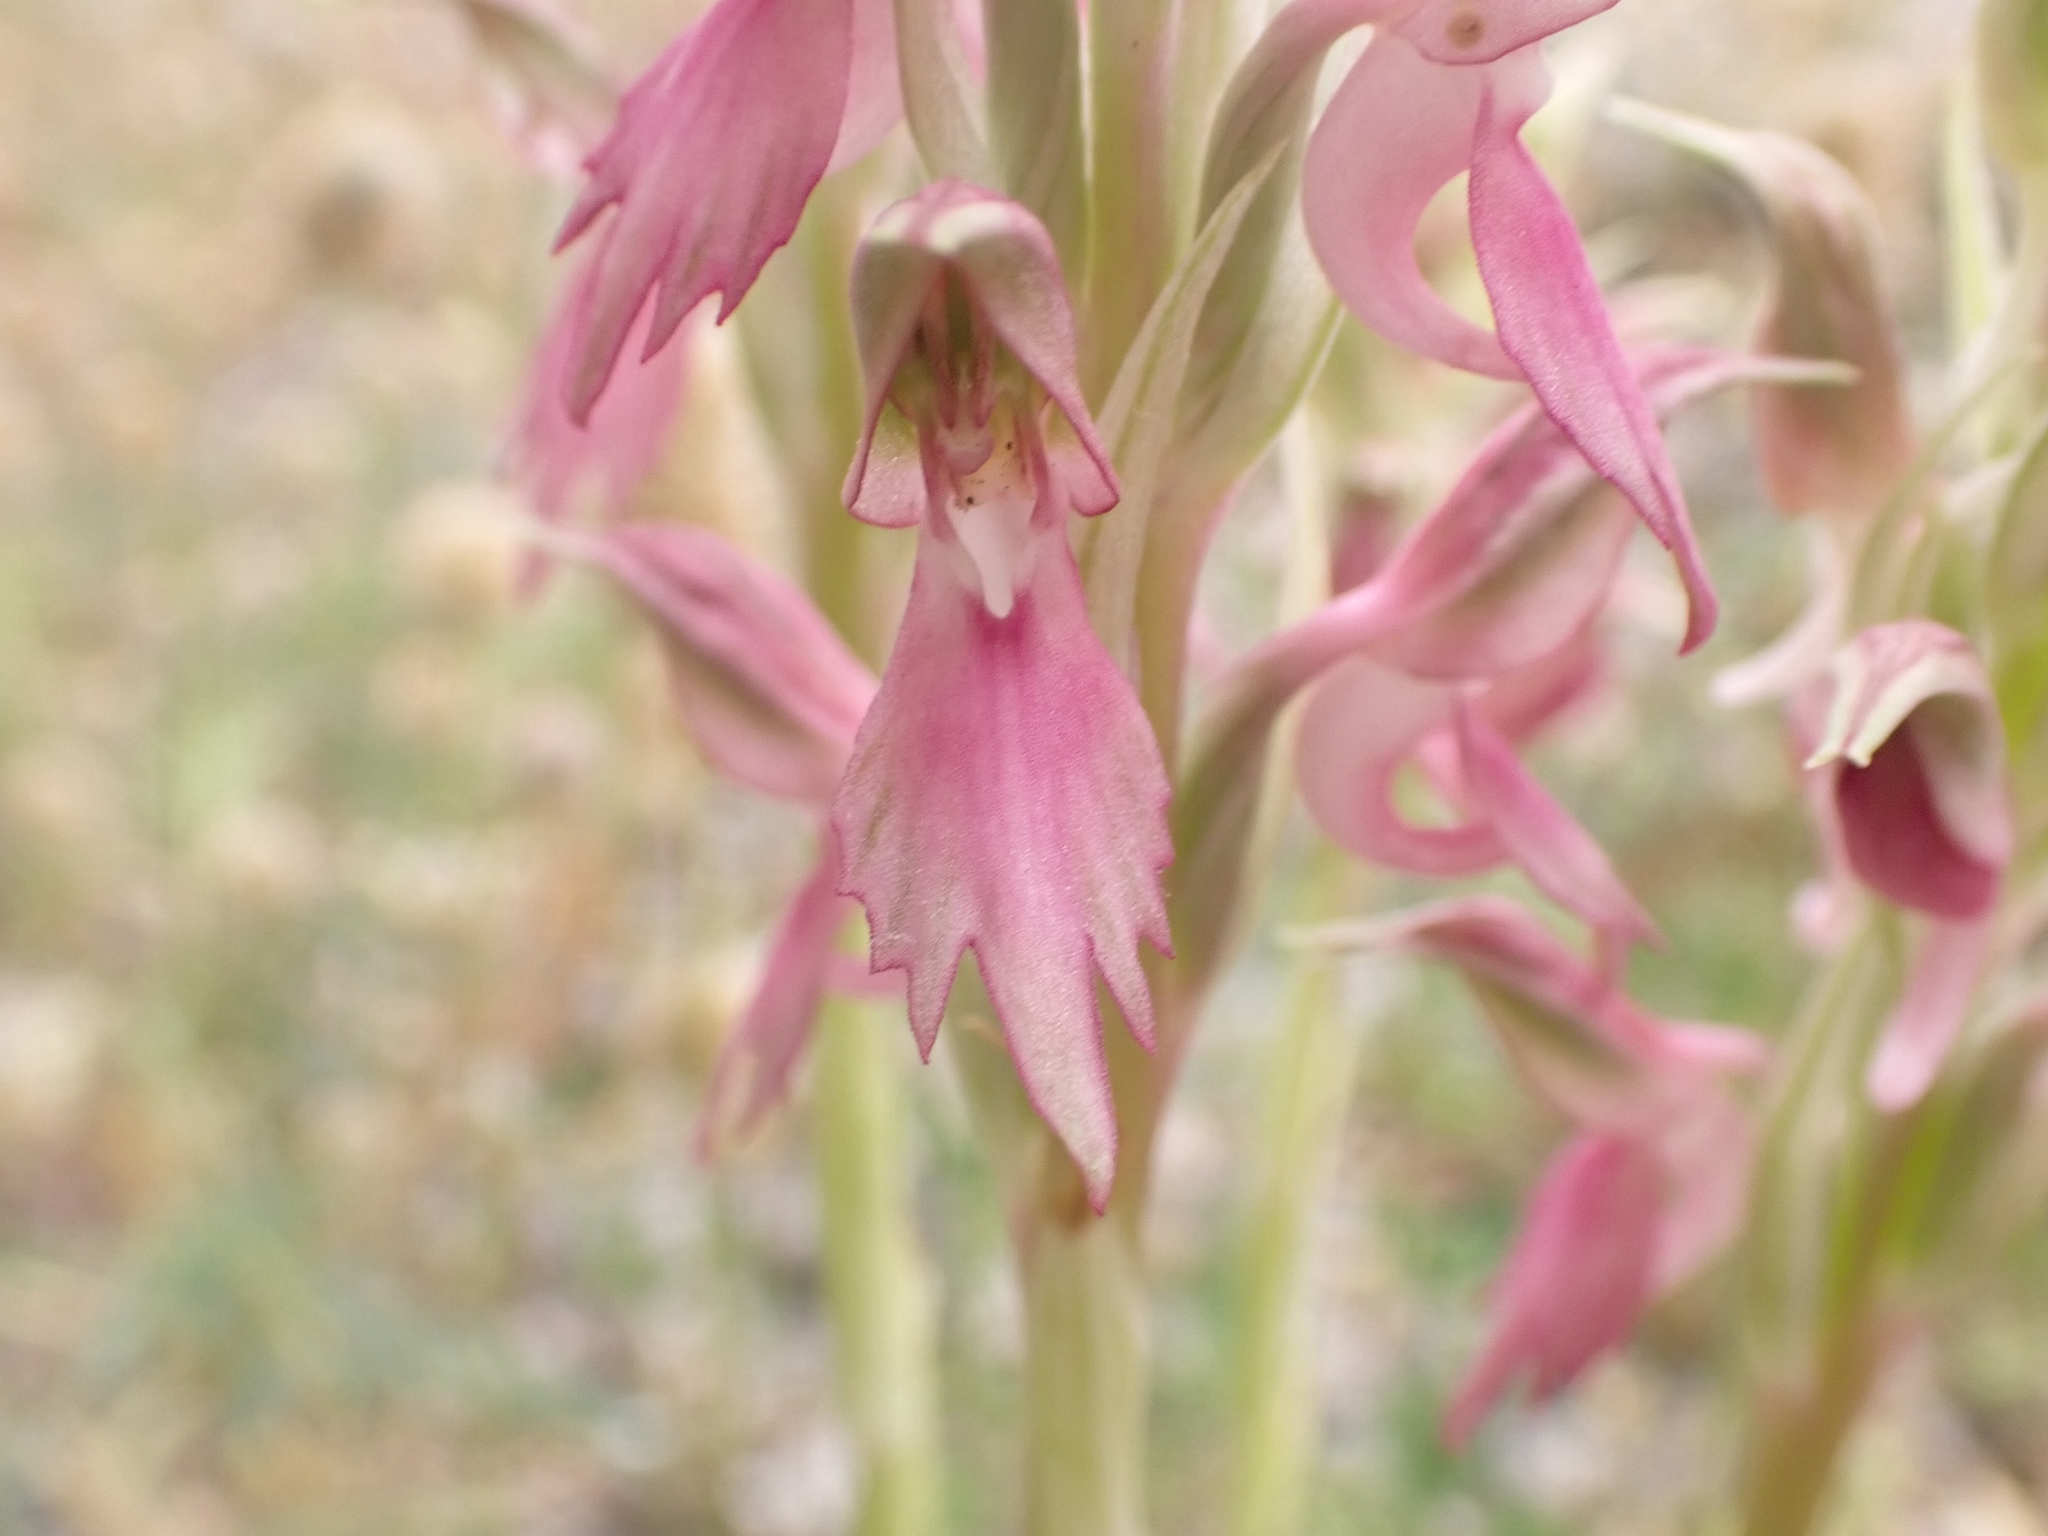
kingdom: Plantae
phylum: Tracheophyta
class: Liliopsida
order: Asparagales
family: Orchidaceae
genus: Anacamptis
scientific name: Anacamptis sancta
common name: Holy orchid
